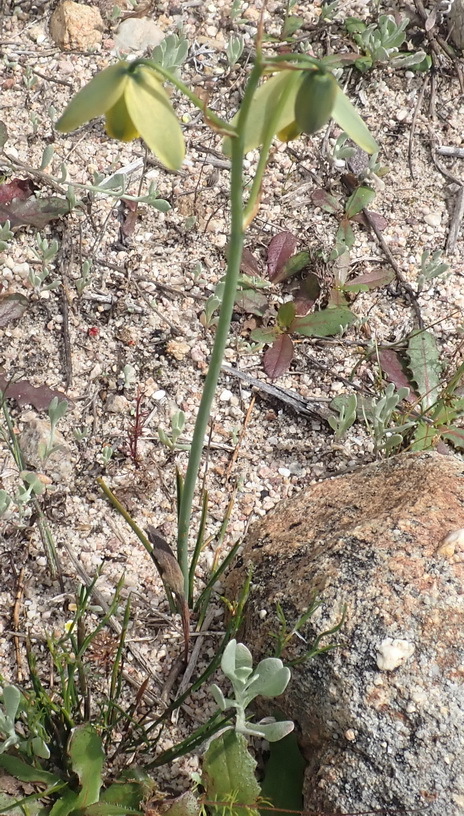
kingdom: Plantae
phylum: Tracheophyta
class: Liliopsida
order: Asparagales
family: Asparagaceae
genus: Albuca
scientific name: Albuca cooperi
